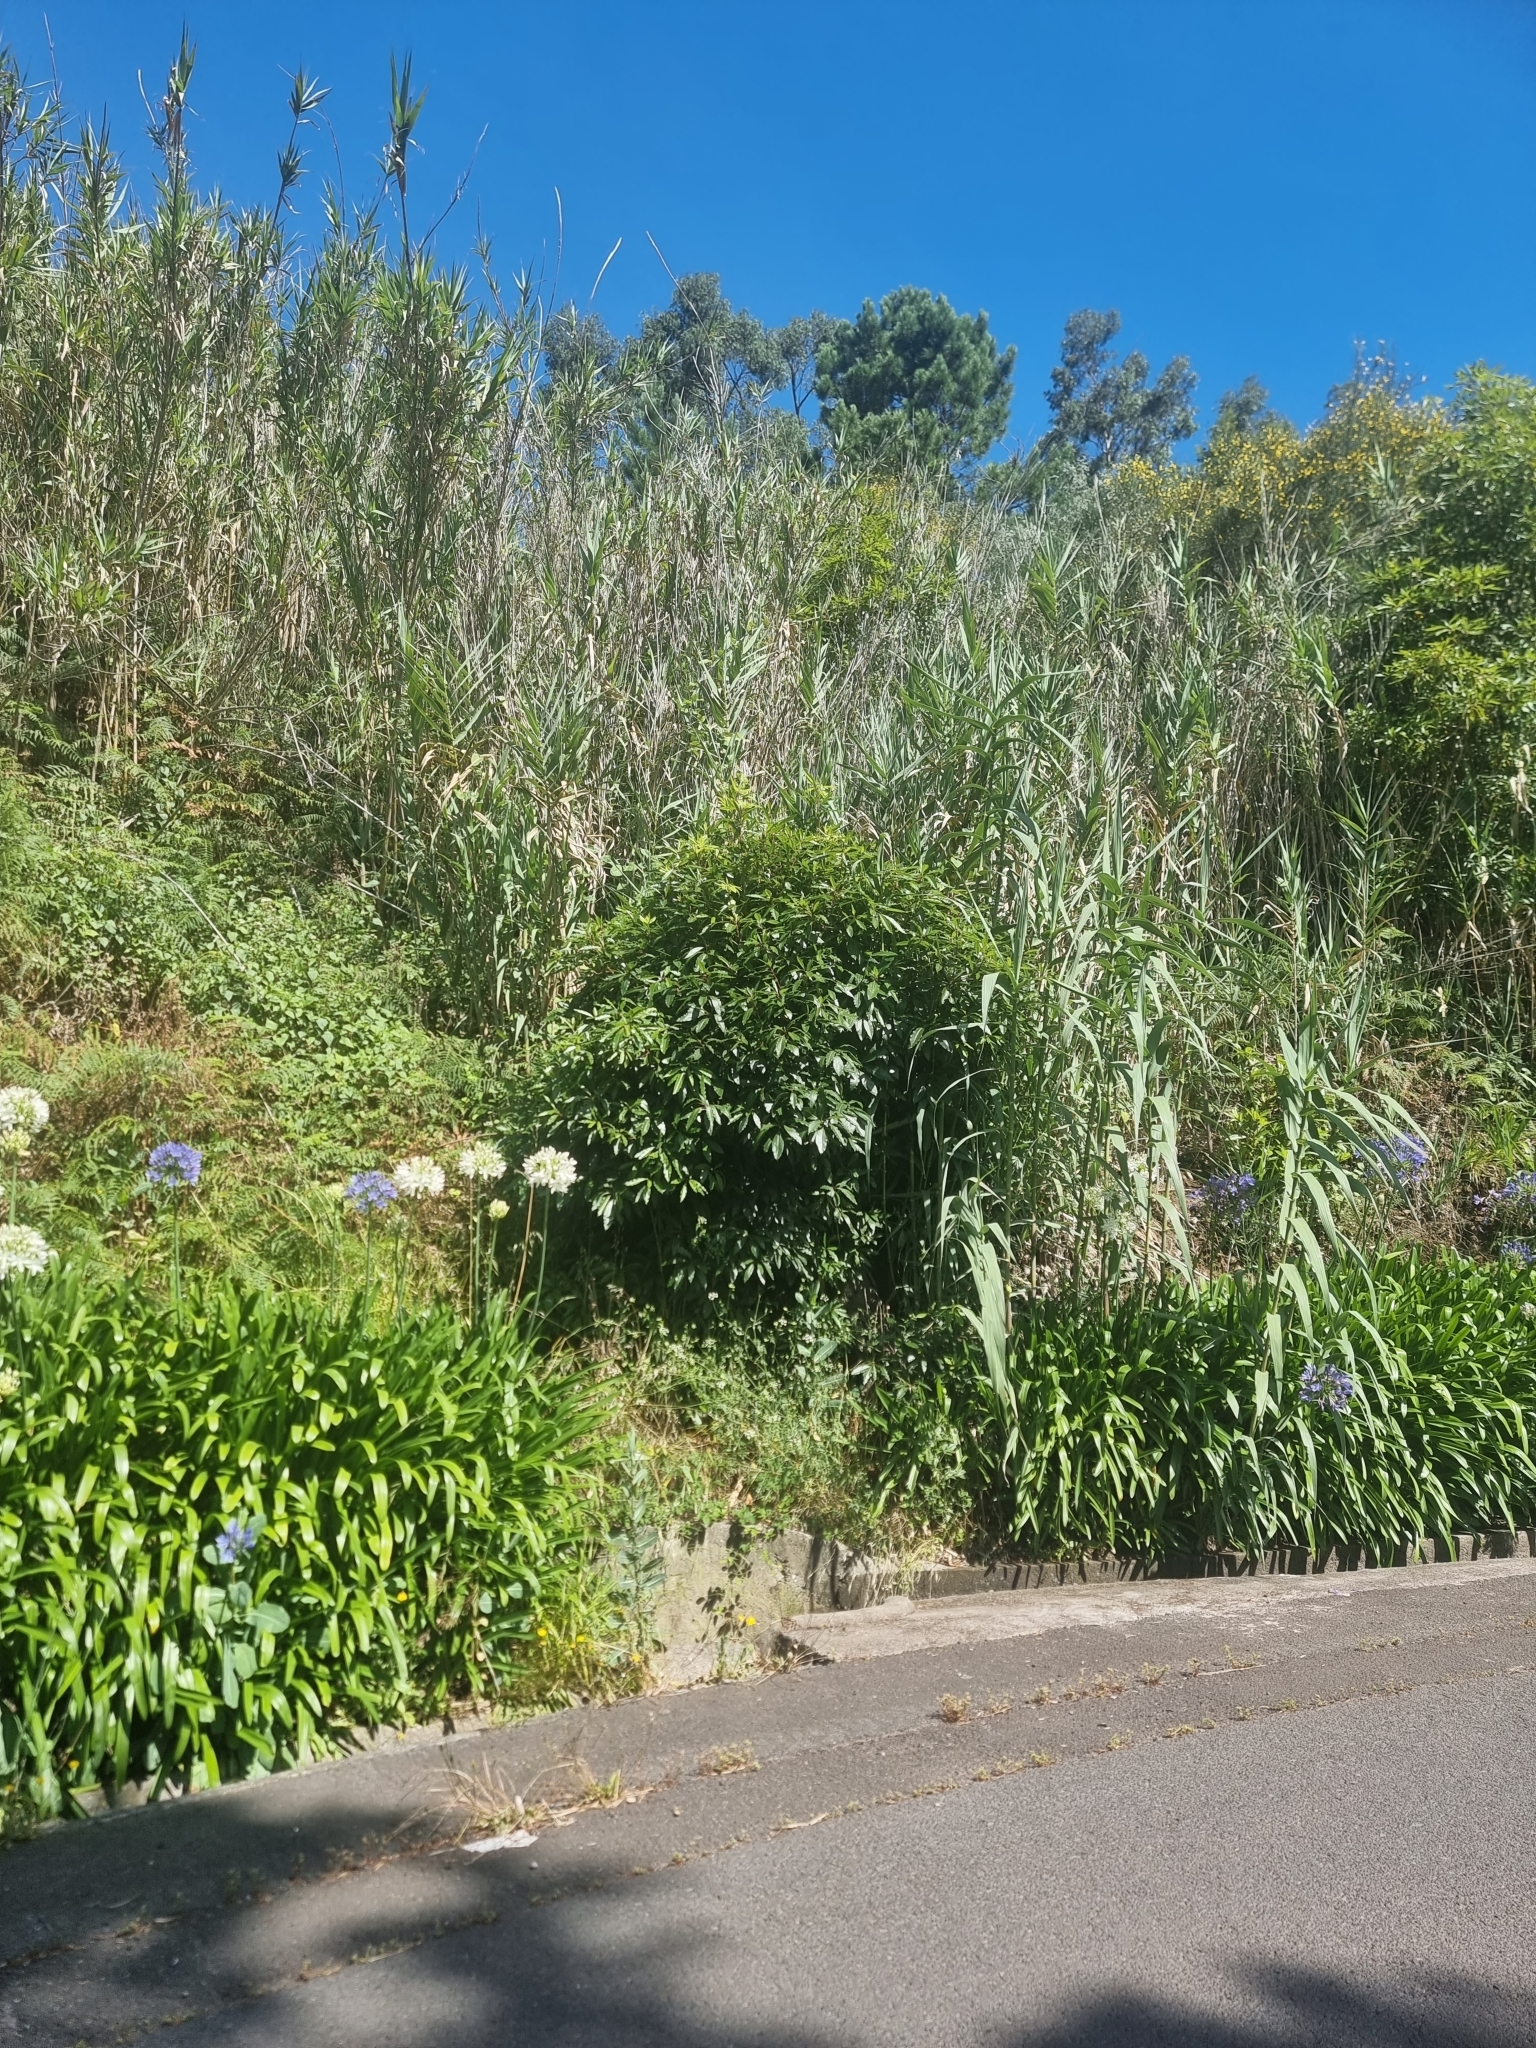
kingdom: Plantae
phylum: Tracheophyta
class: Magnoliopsida
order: Apiales
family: Pittosporaceae
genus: Pittosporum
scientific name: Pittosporum undulatum
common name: Australian cheesewood
